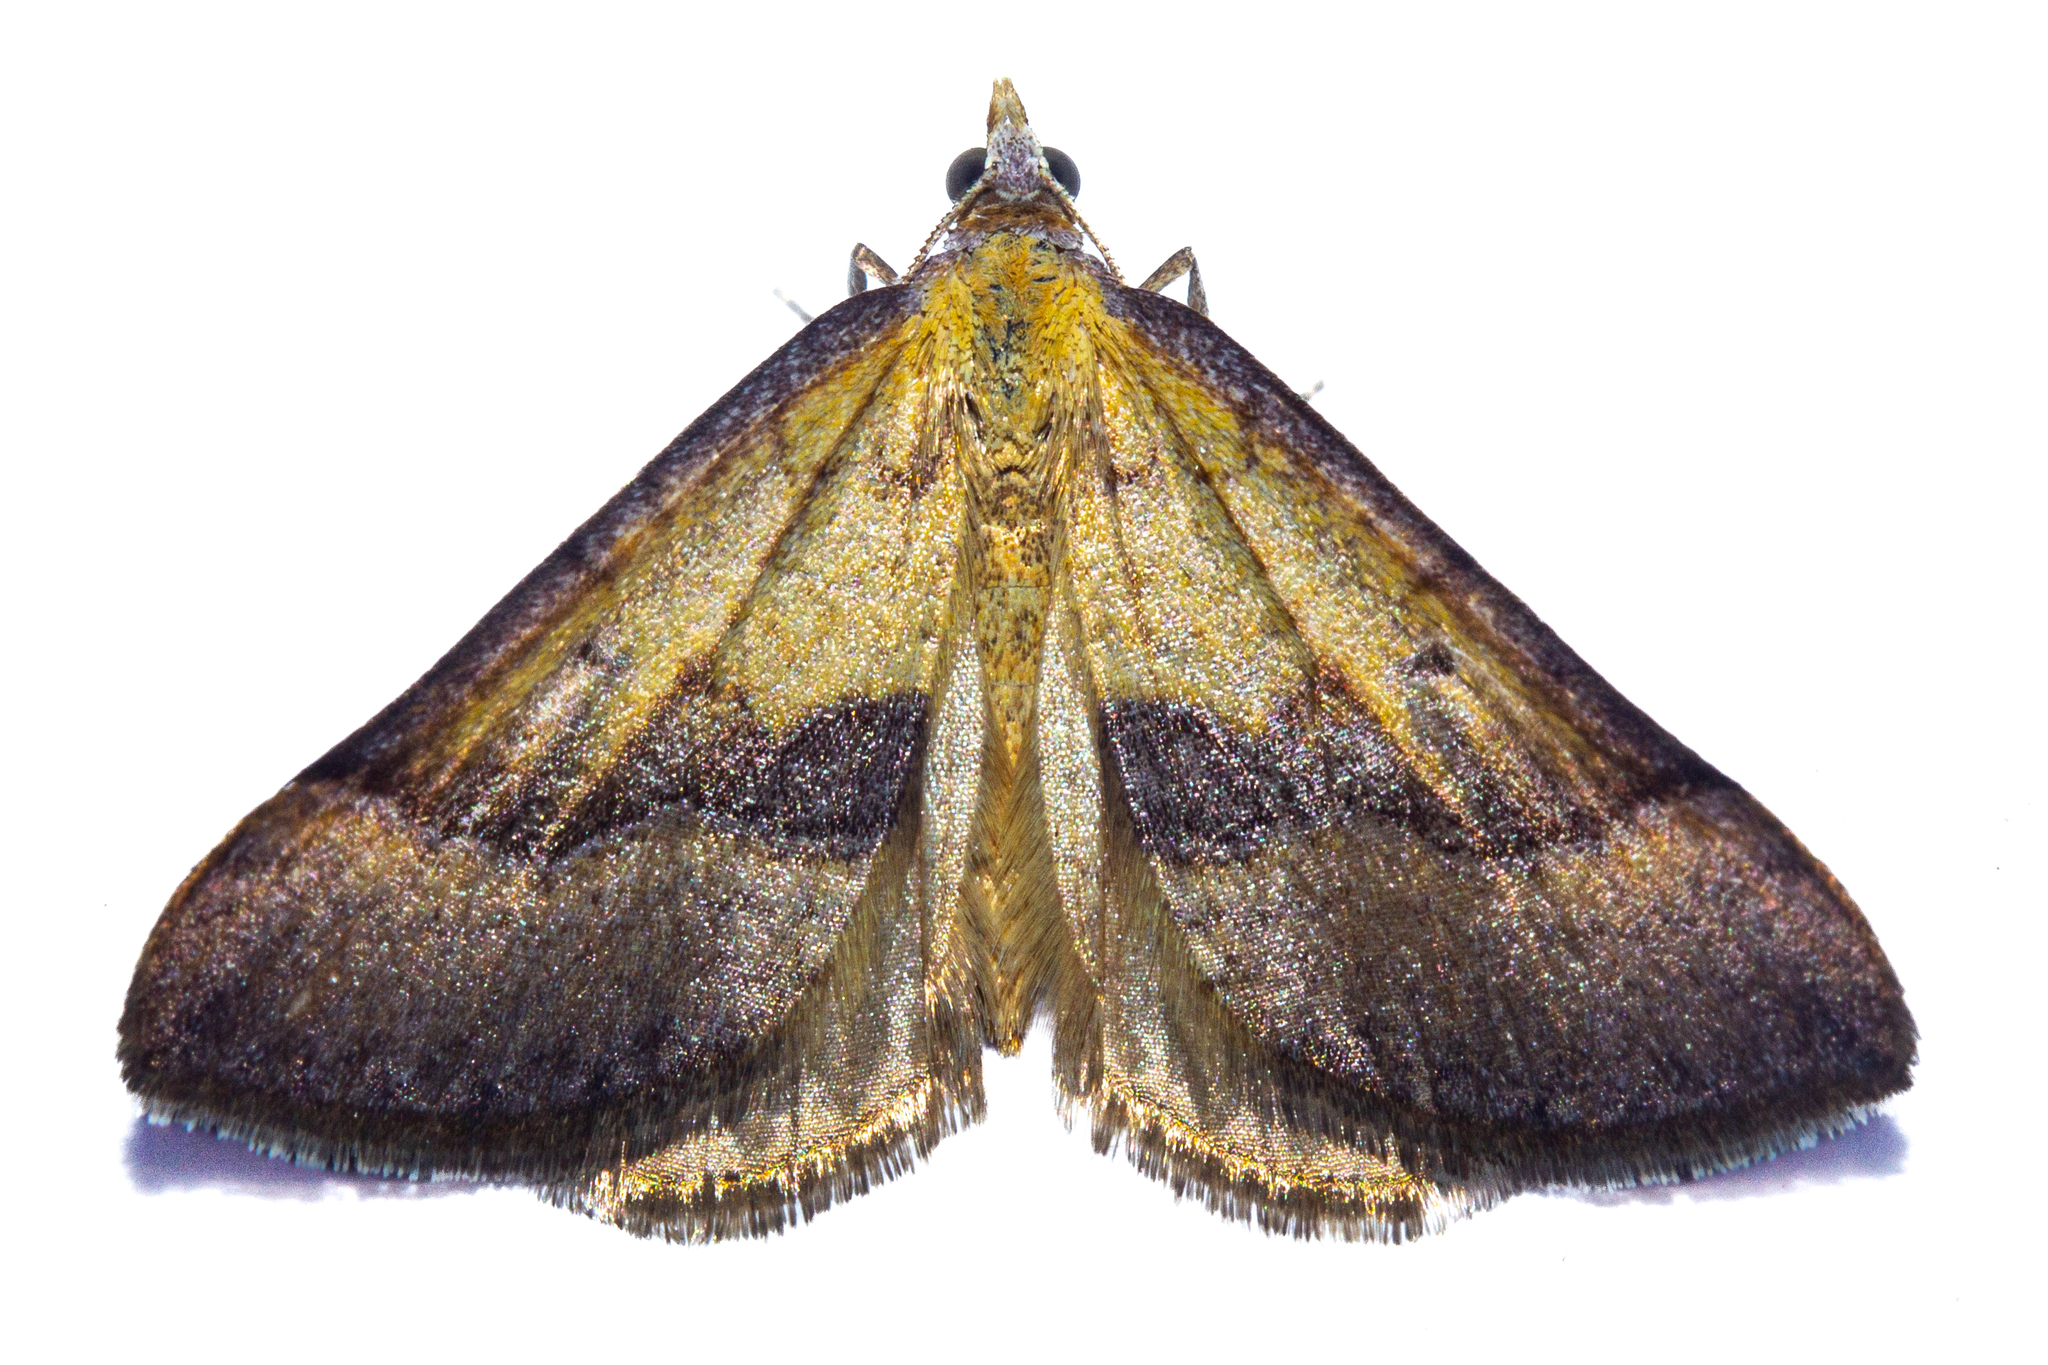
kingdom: Animalia
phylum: Arthropoda
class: Insecta
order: Lepidoptera
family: Geometridae
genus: Anachloris
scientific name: Anachloris subochraria
